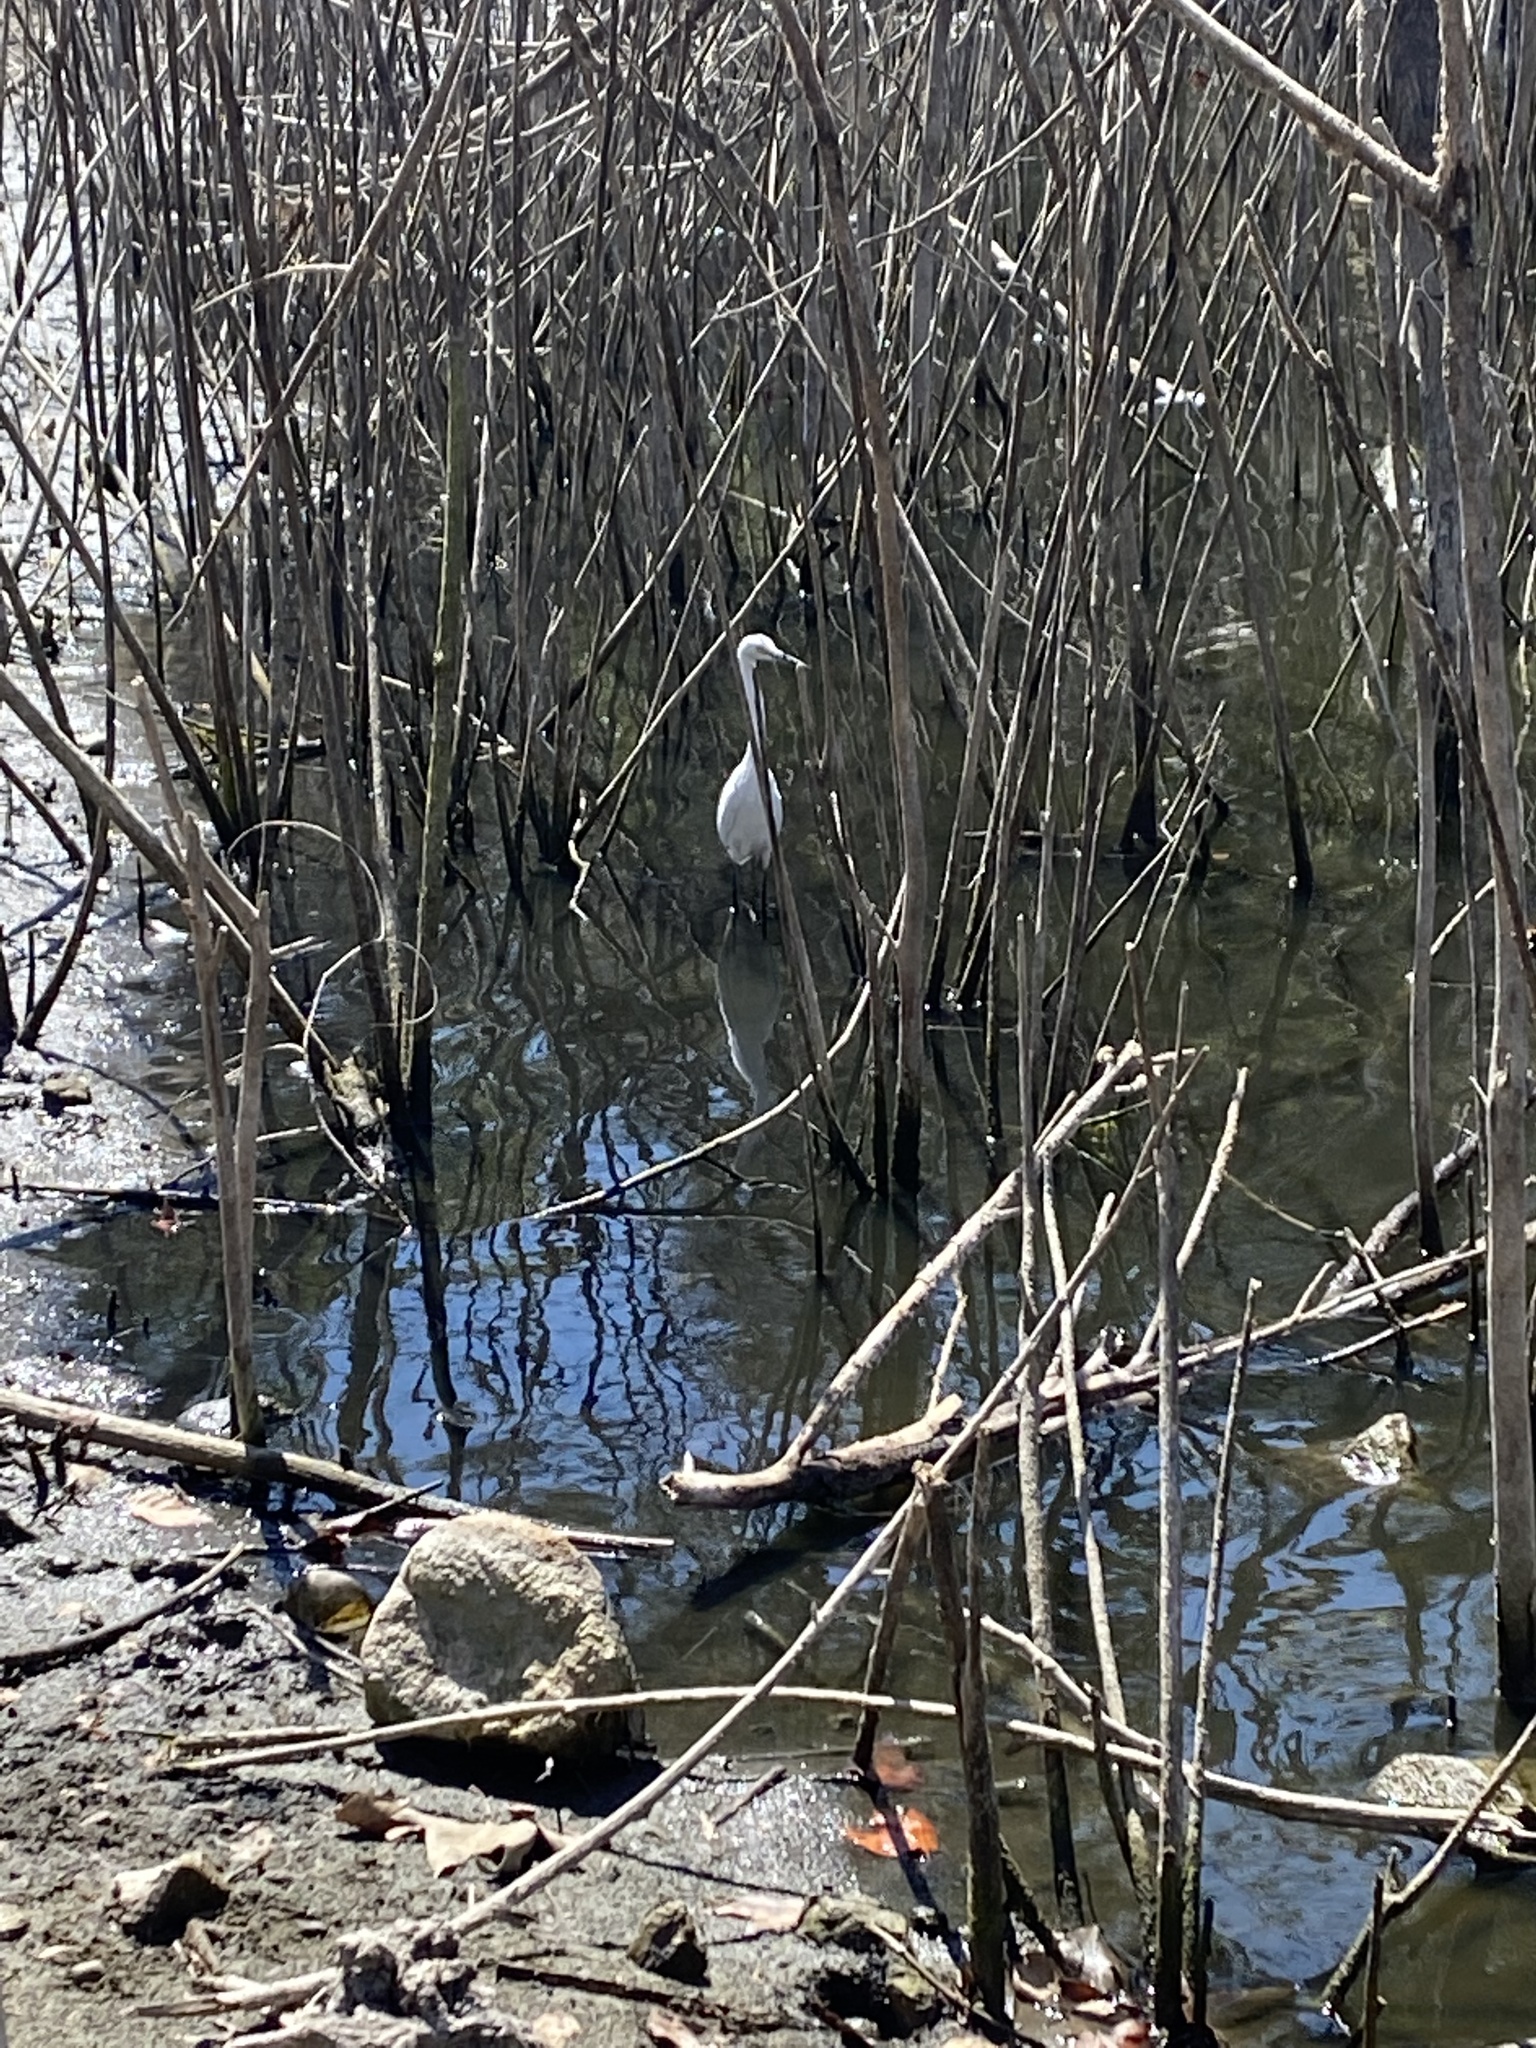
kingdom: Animalia
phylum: Chordata
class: Aves
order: Pelecaniformes
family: Ardeidae
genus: Egretta
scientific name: Egretta thula
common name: Snowy egret
